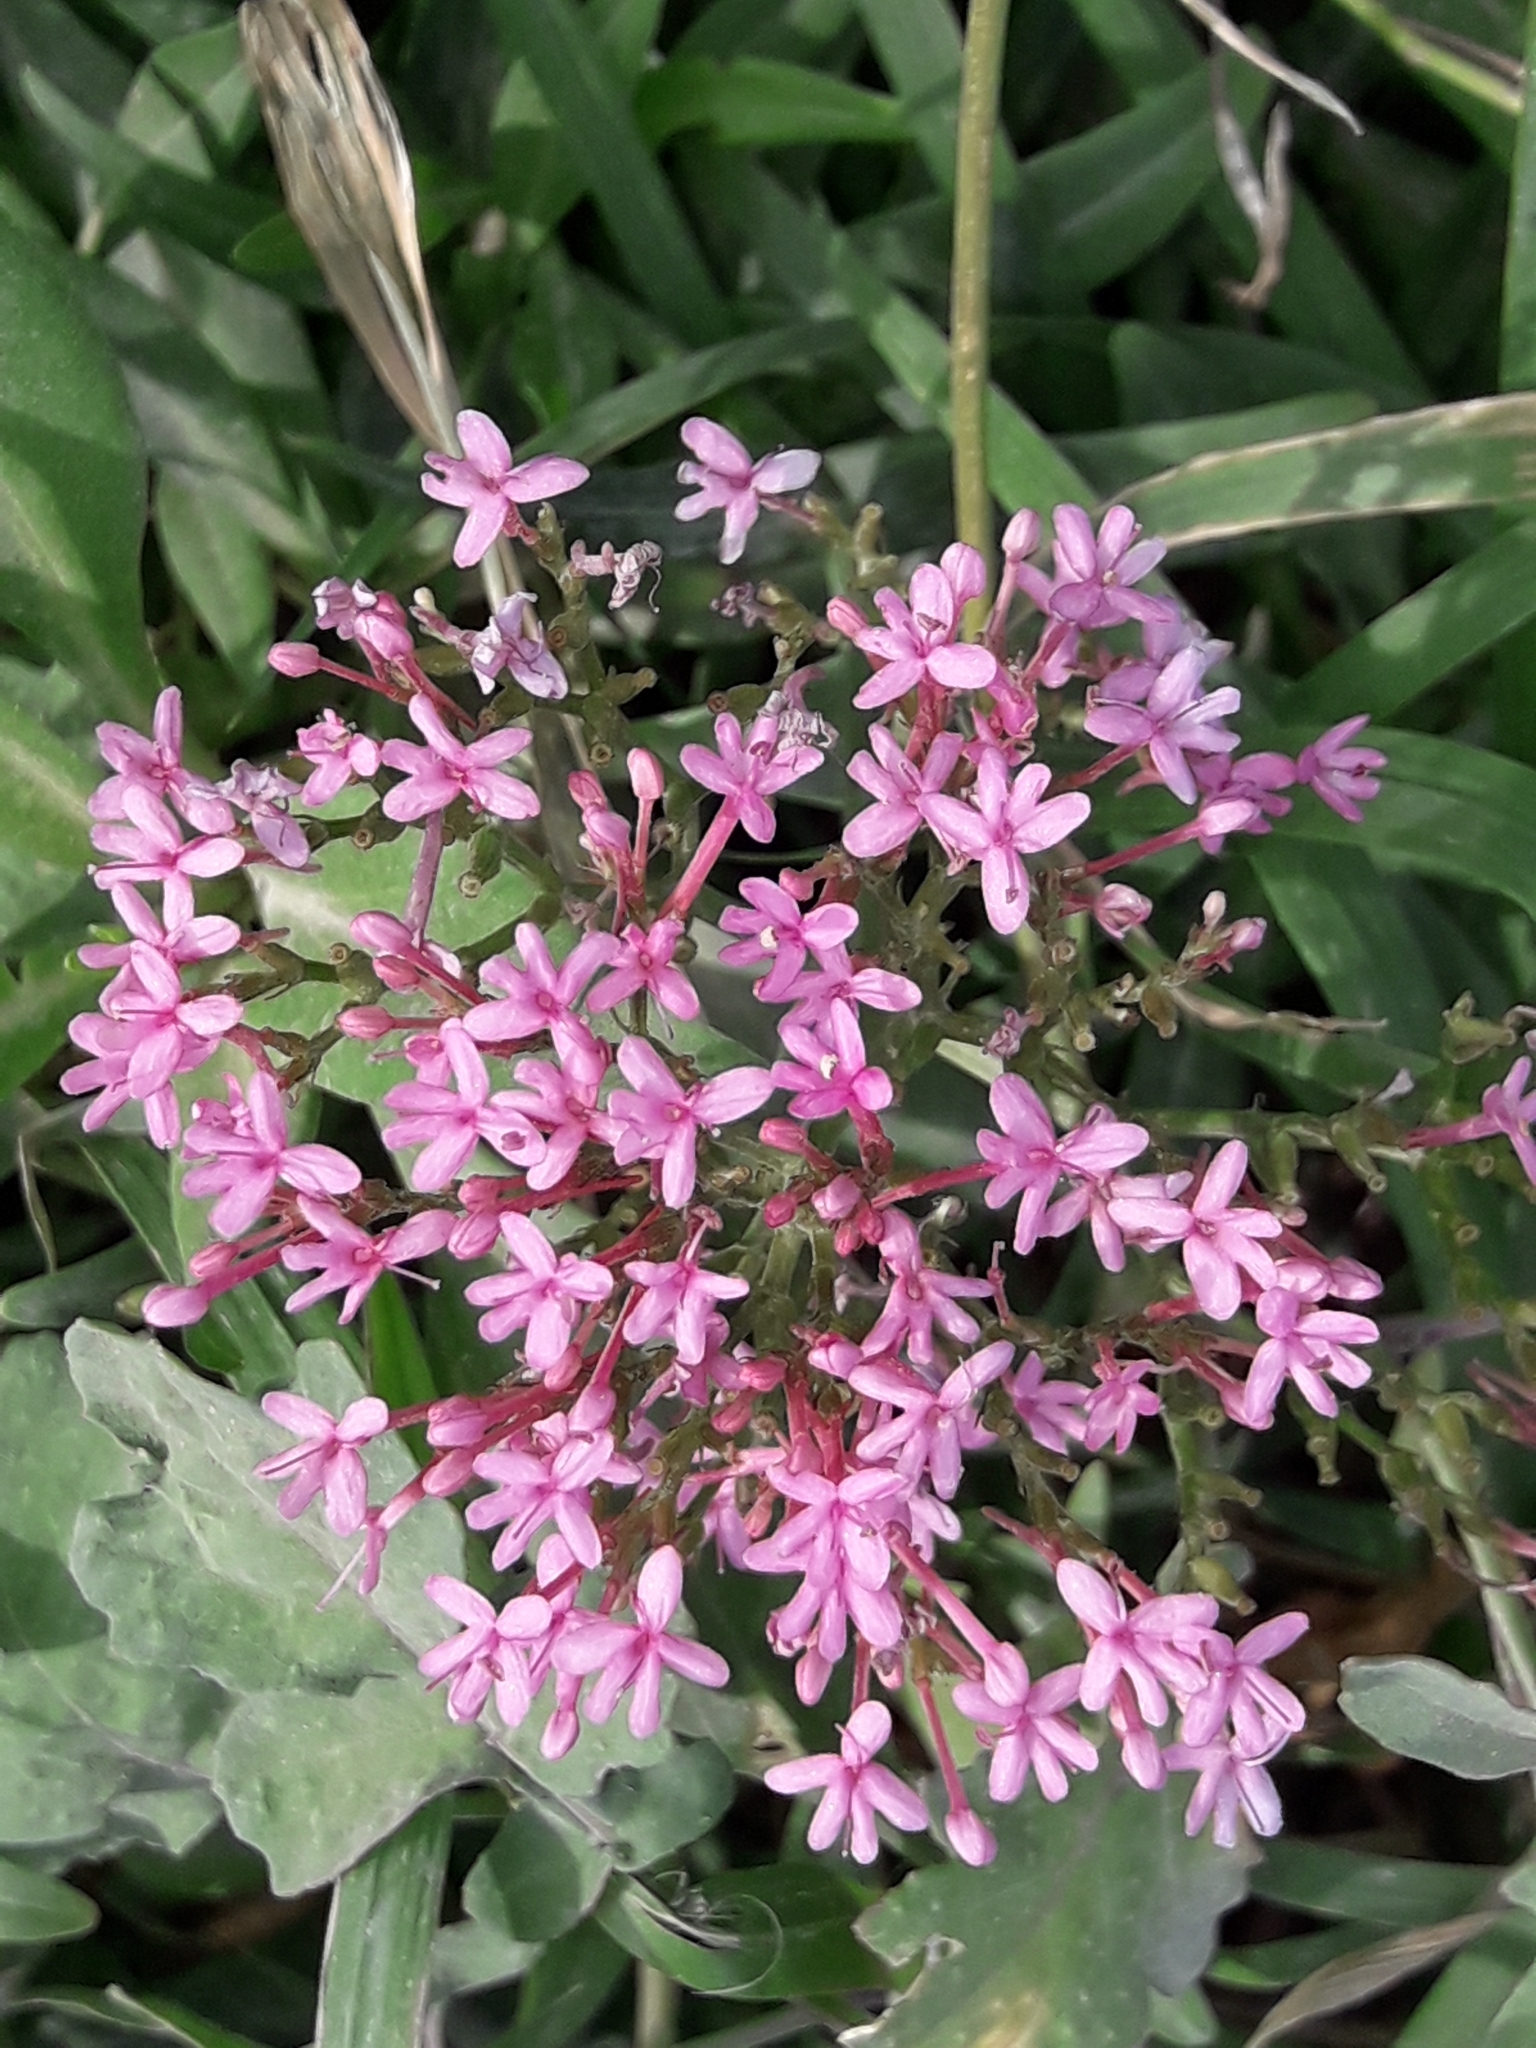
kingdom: Plantae
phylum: Tracheophyta
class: Magnoliopsida
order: Dipsacales
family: Caprifoliaceae
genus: Centranthus
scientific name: Centranthus ruber
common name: Red valerian
